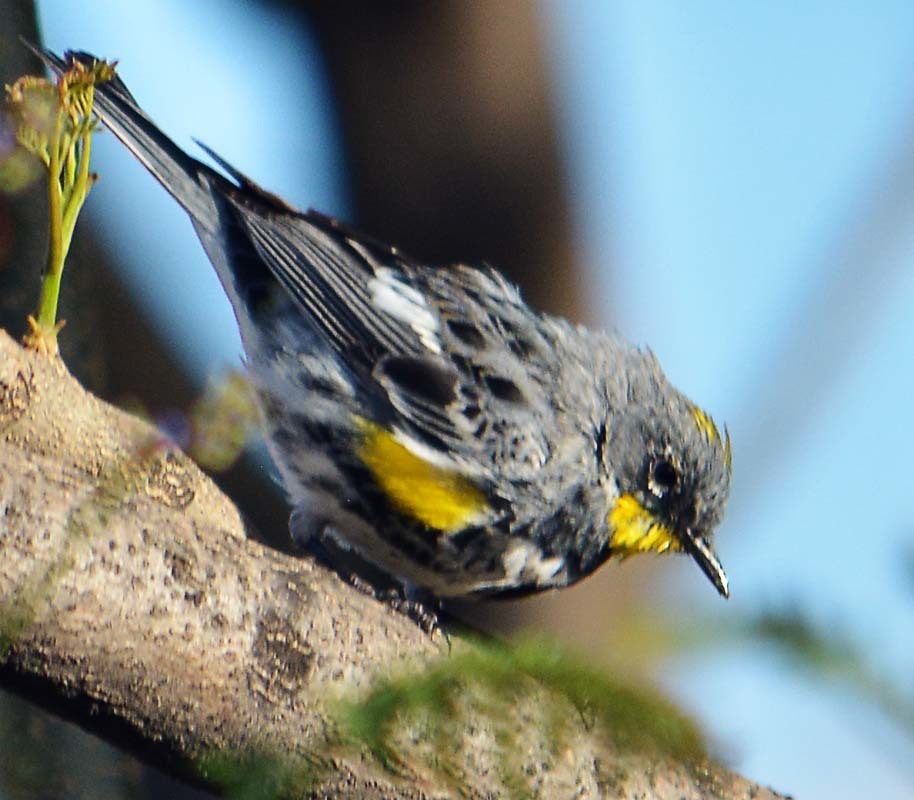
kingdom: Animalia
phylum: Chordata
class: Aves
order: Passeriformes
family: Parulidae
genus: Setophaga
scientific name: Setophaga auduboni
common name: Audubon's warbler
